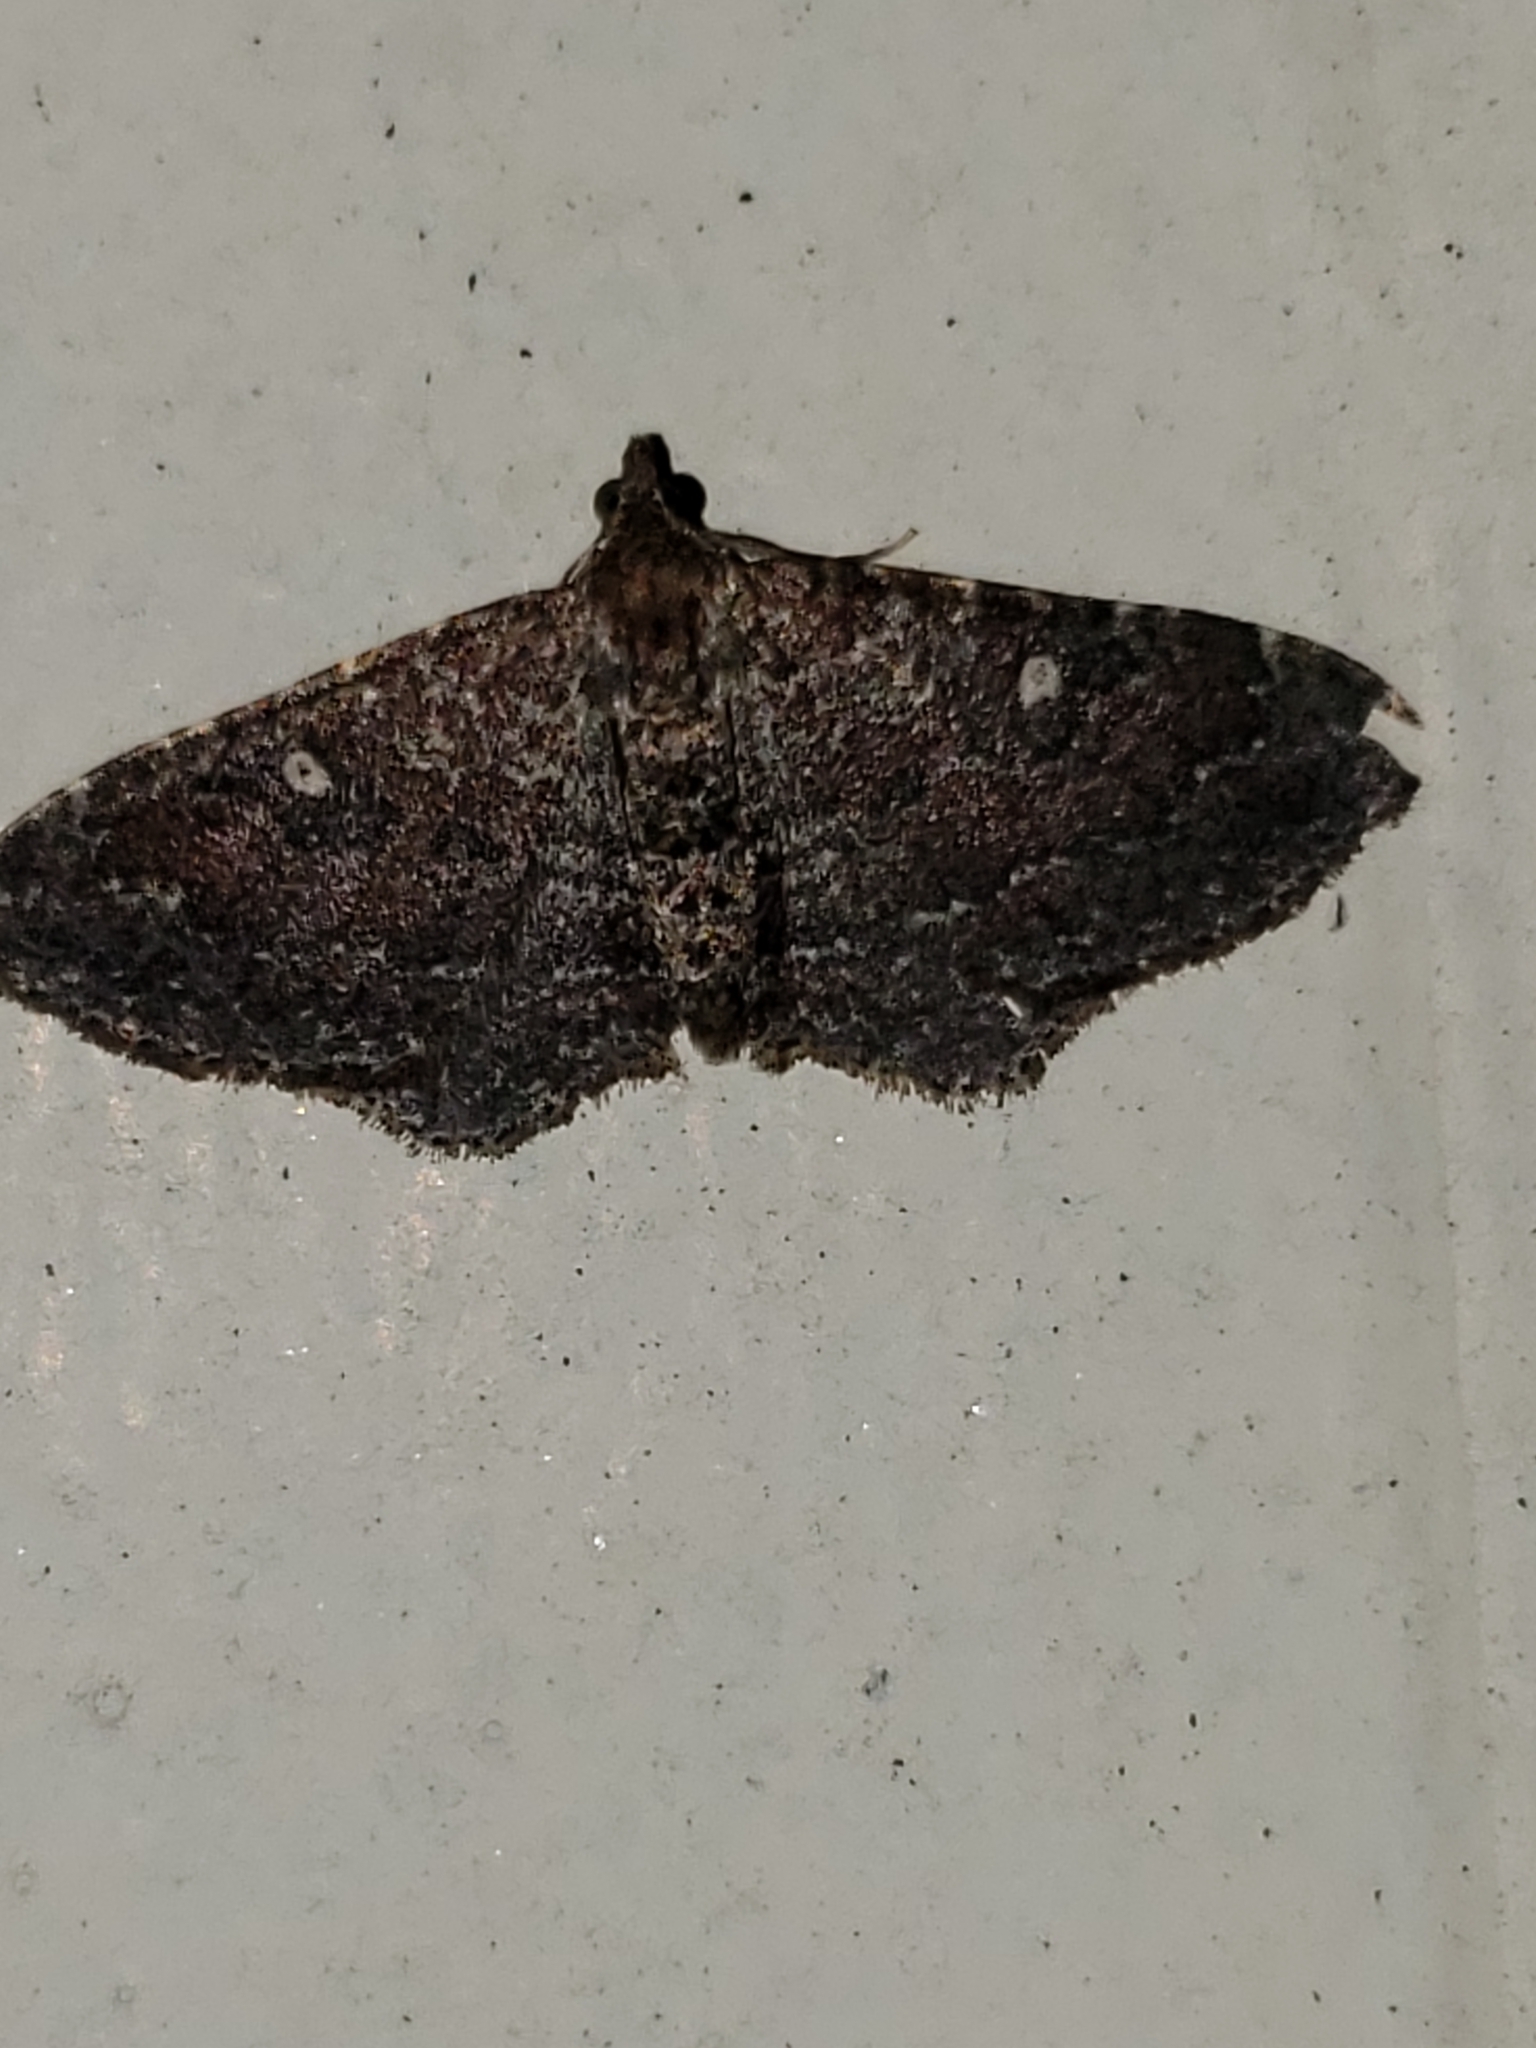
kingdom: Animalia
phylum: Arthropoda
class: Insecta
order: Lepidoptera
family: Geometridae
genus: Orthonama
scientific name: Orthonama obstipata
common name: The gem
